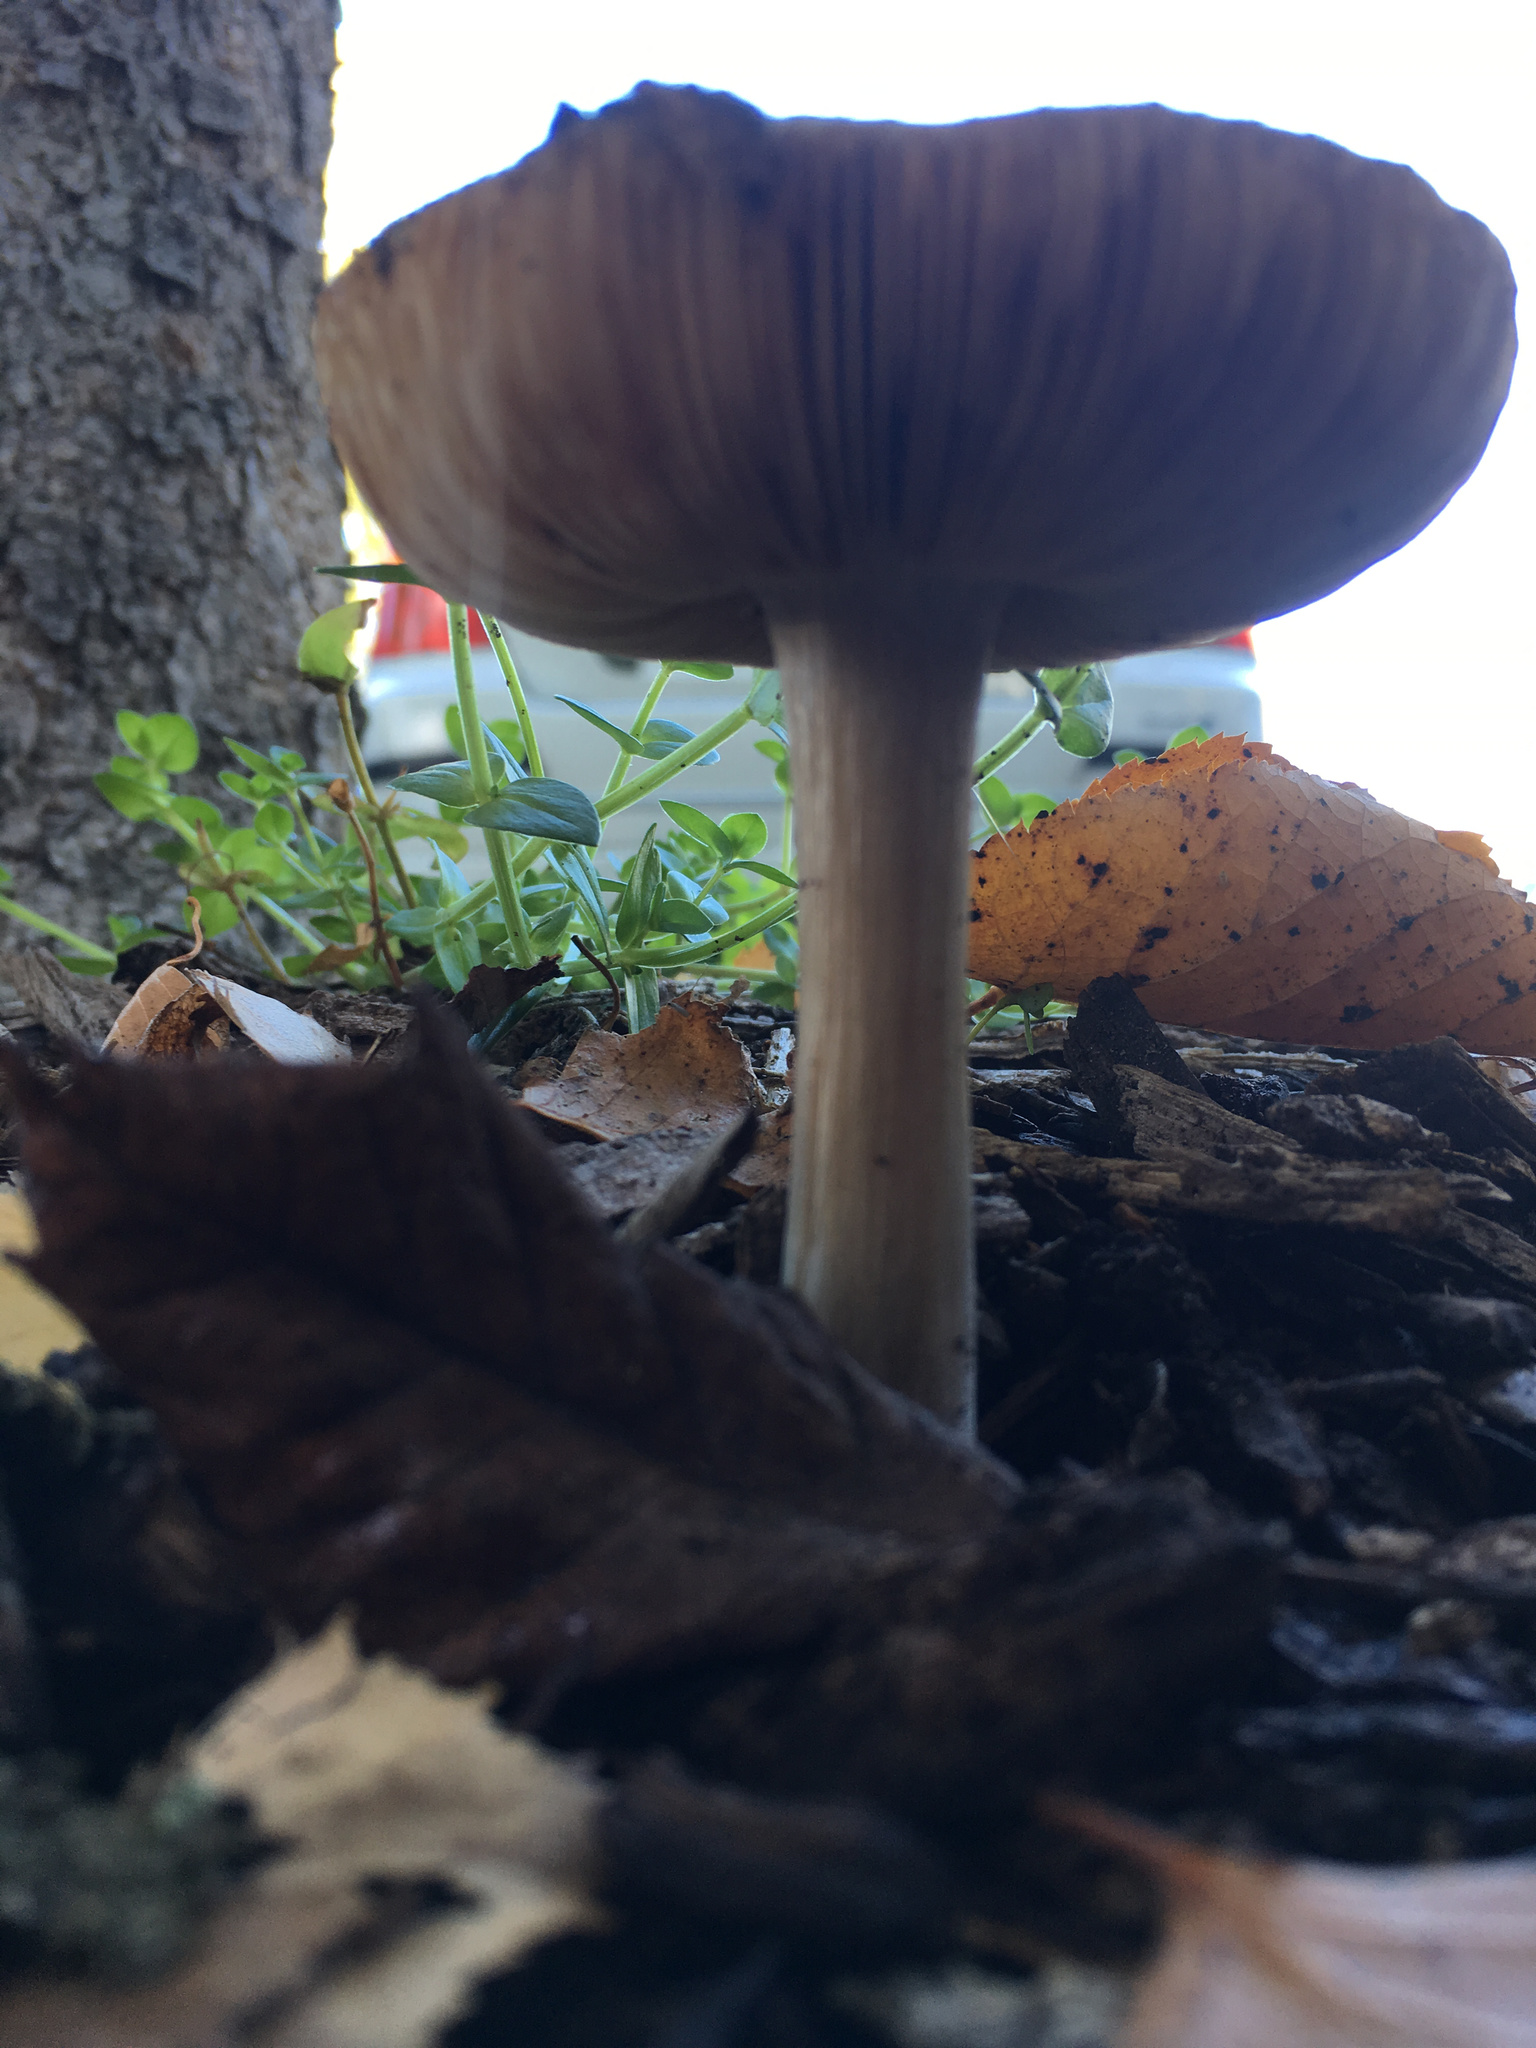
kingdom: Fungi
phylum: Basidiomycota
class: Agaricomycetes
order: Agaricales
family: Pluteaceae
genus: Volvopluteus
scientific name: Volvopluteus gloiocephalus
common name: Stubble rosegill
